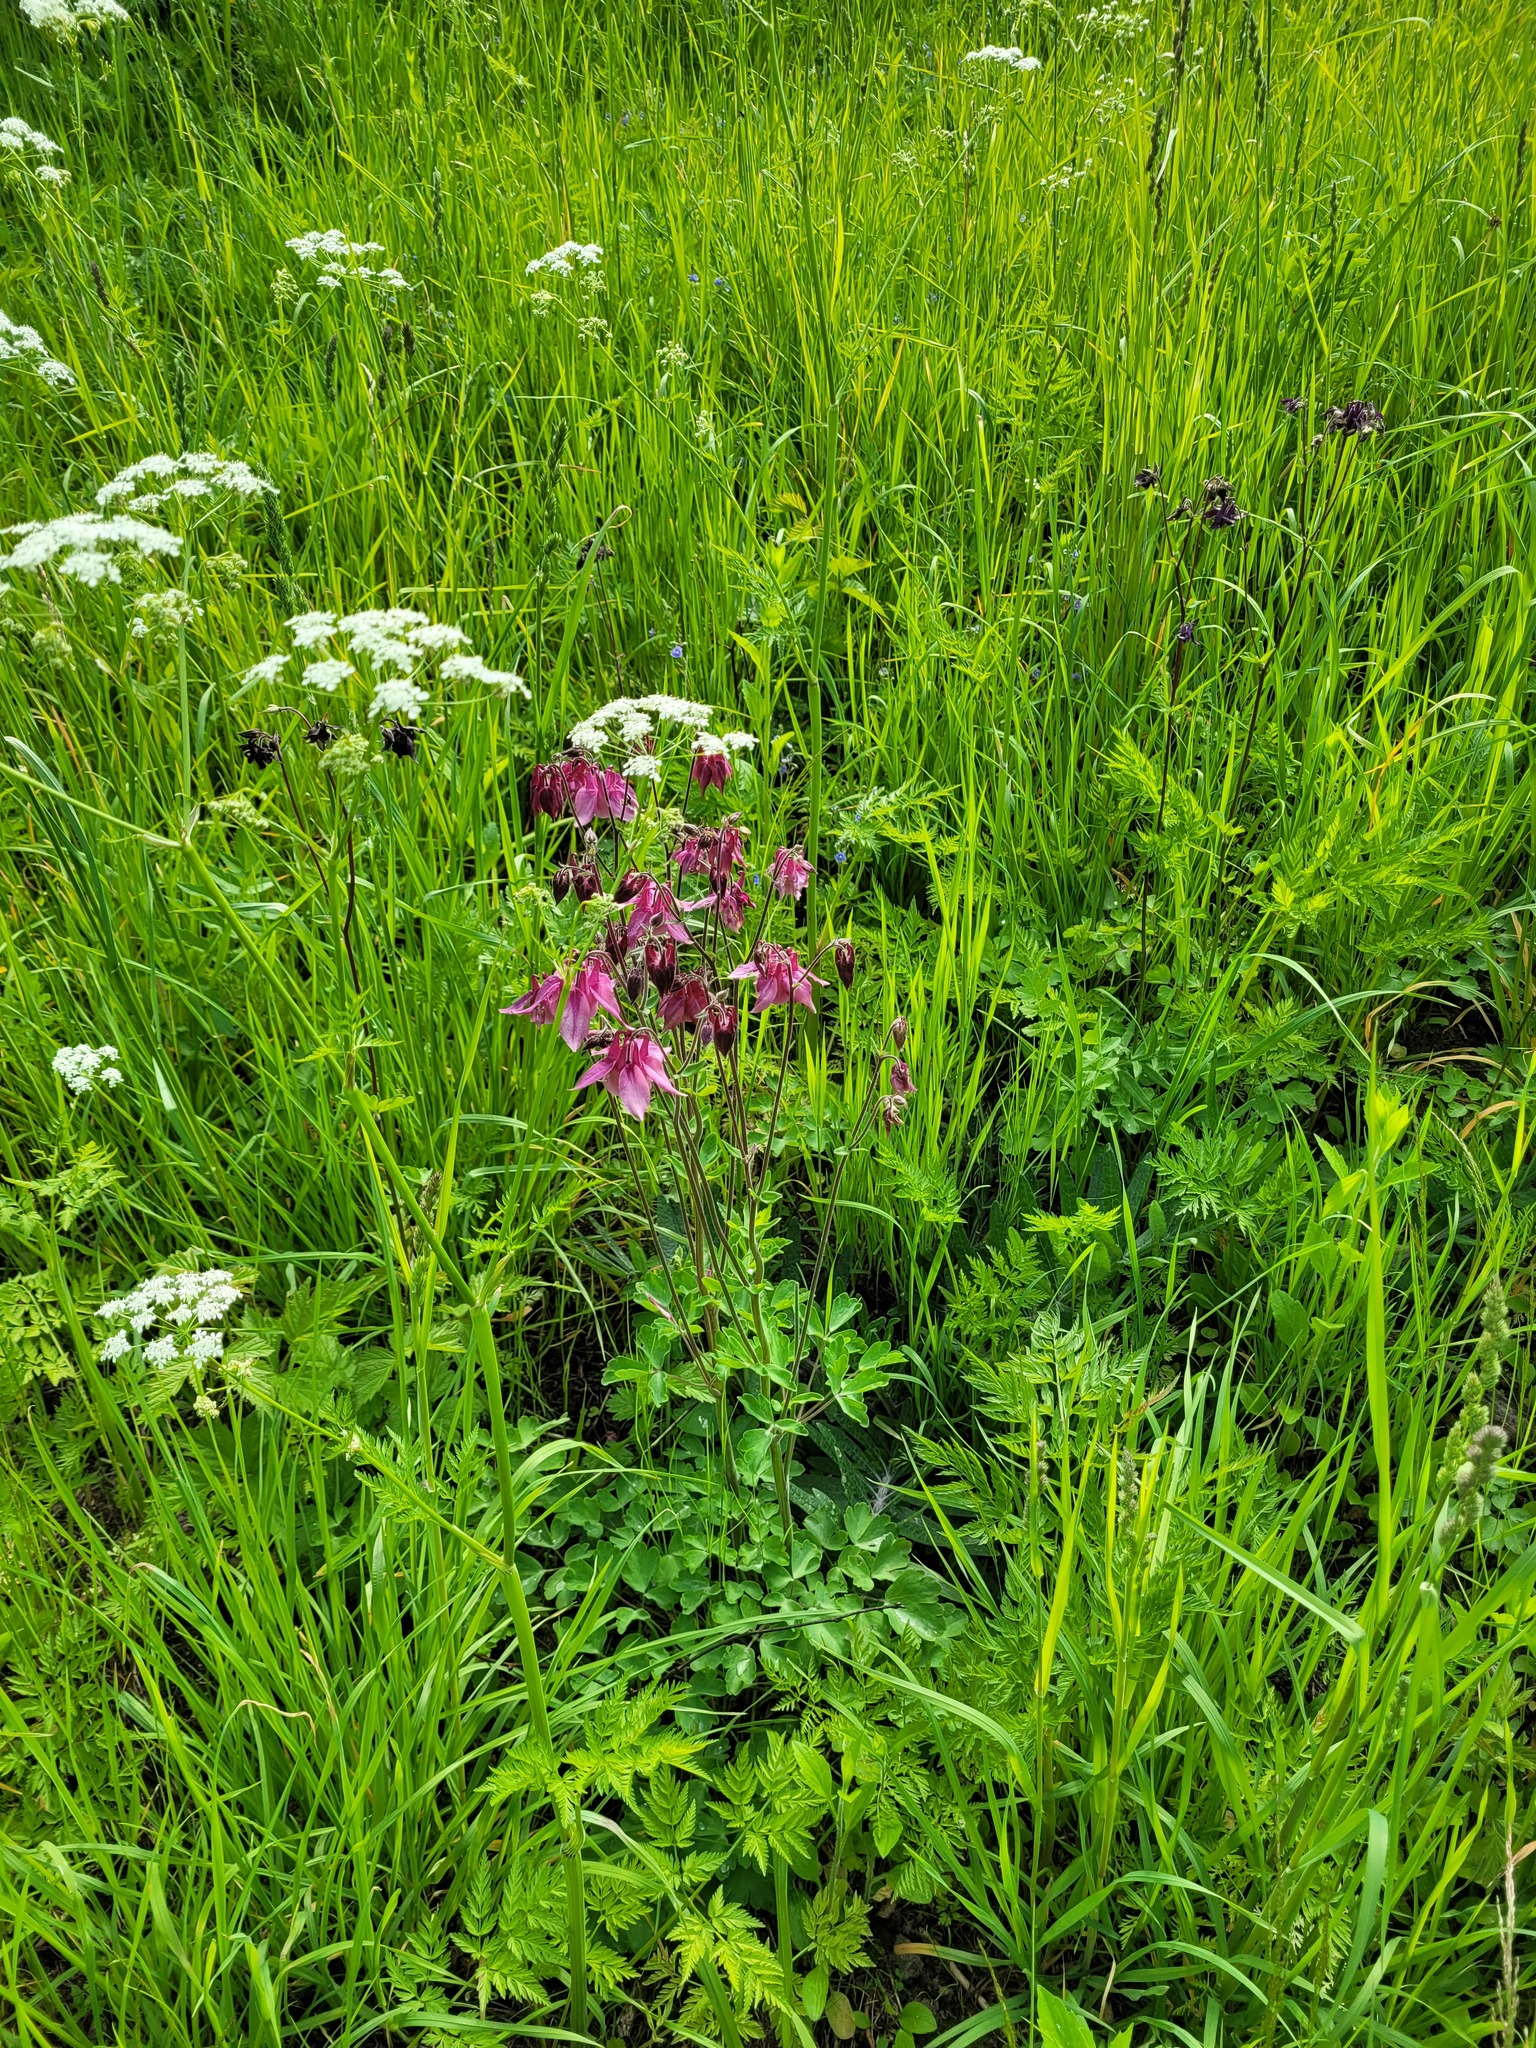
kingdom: Plantae
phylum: Tracheophyta
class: Magnoliopsida
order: Ranunculales
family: Ranunculaceae
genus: Aquilegia
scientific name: Aquilegia vulgaris
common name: Columbine
